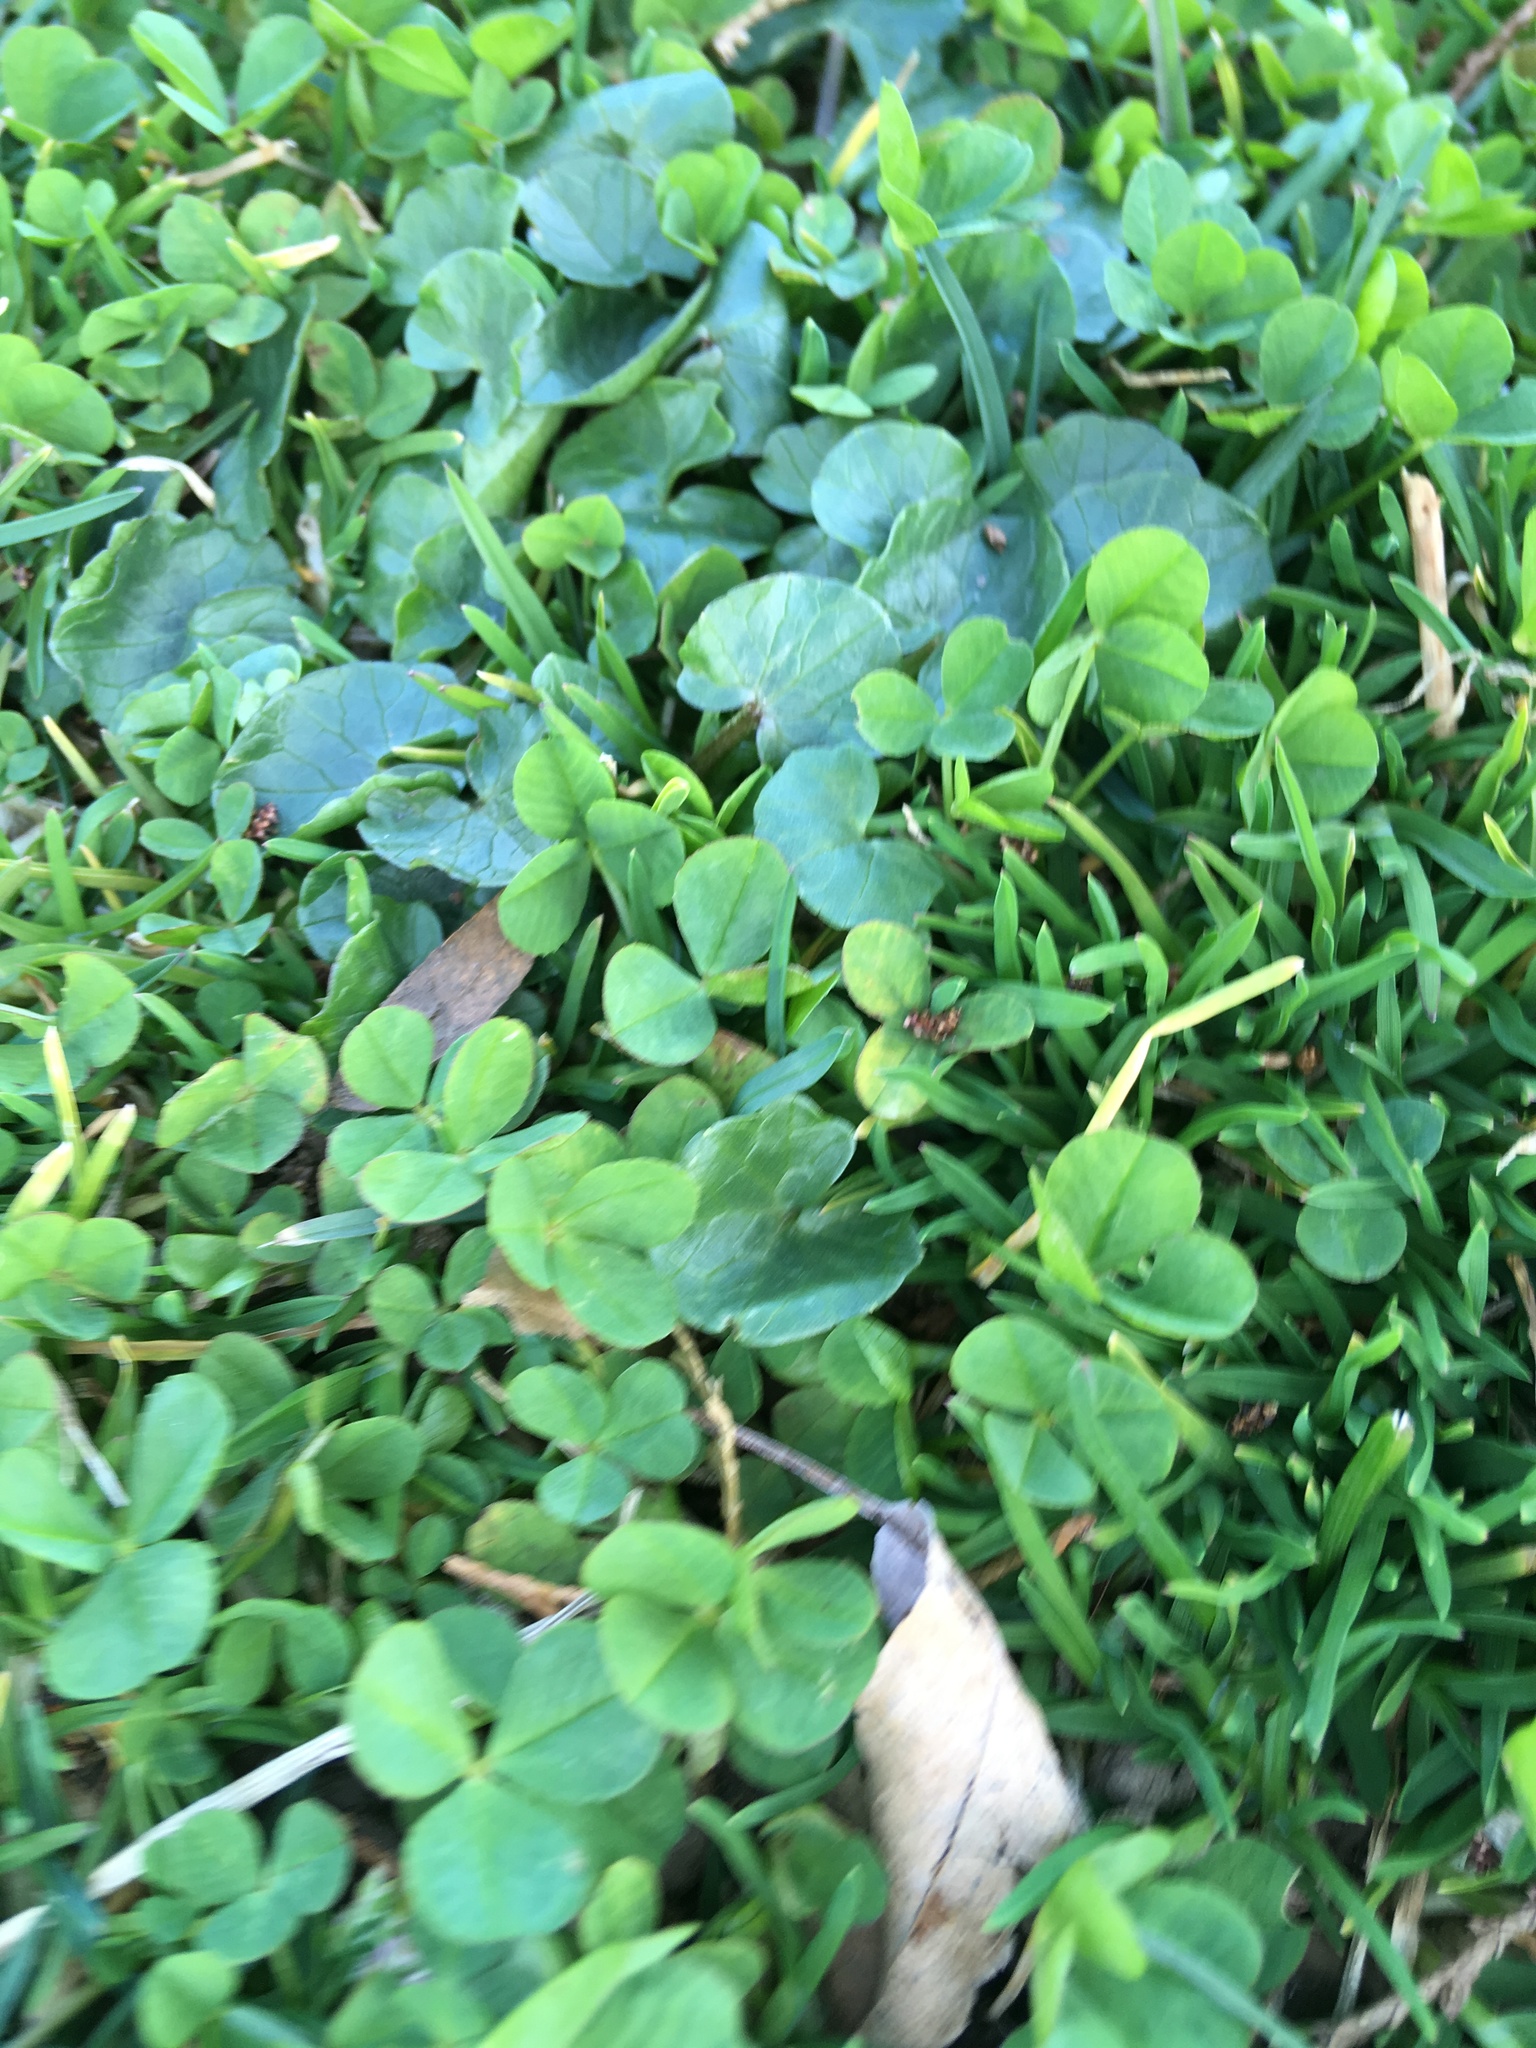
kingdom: Plantae
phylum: Tracheophyta
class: Magnoliopsida
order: Ranunculales
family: Ranunculaceae
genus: Ficaria
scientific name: Ficaria verna
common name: Lesser celandine
